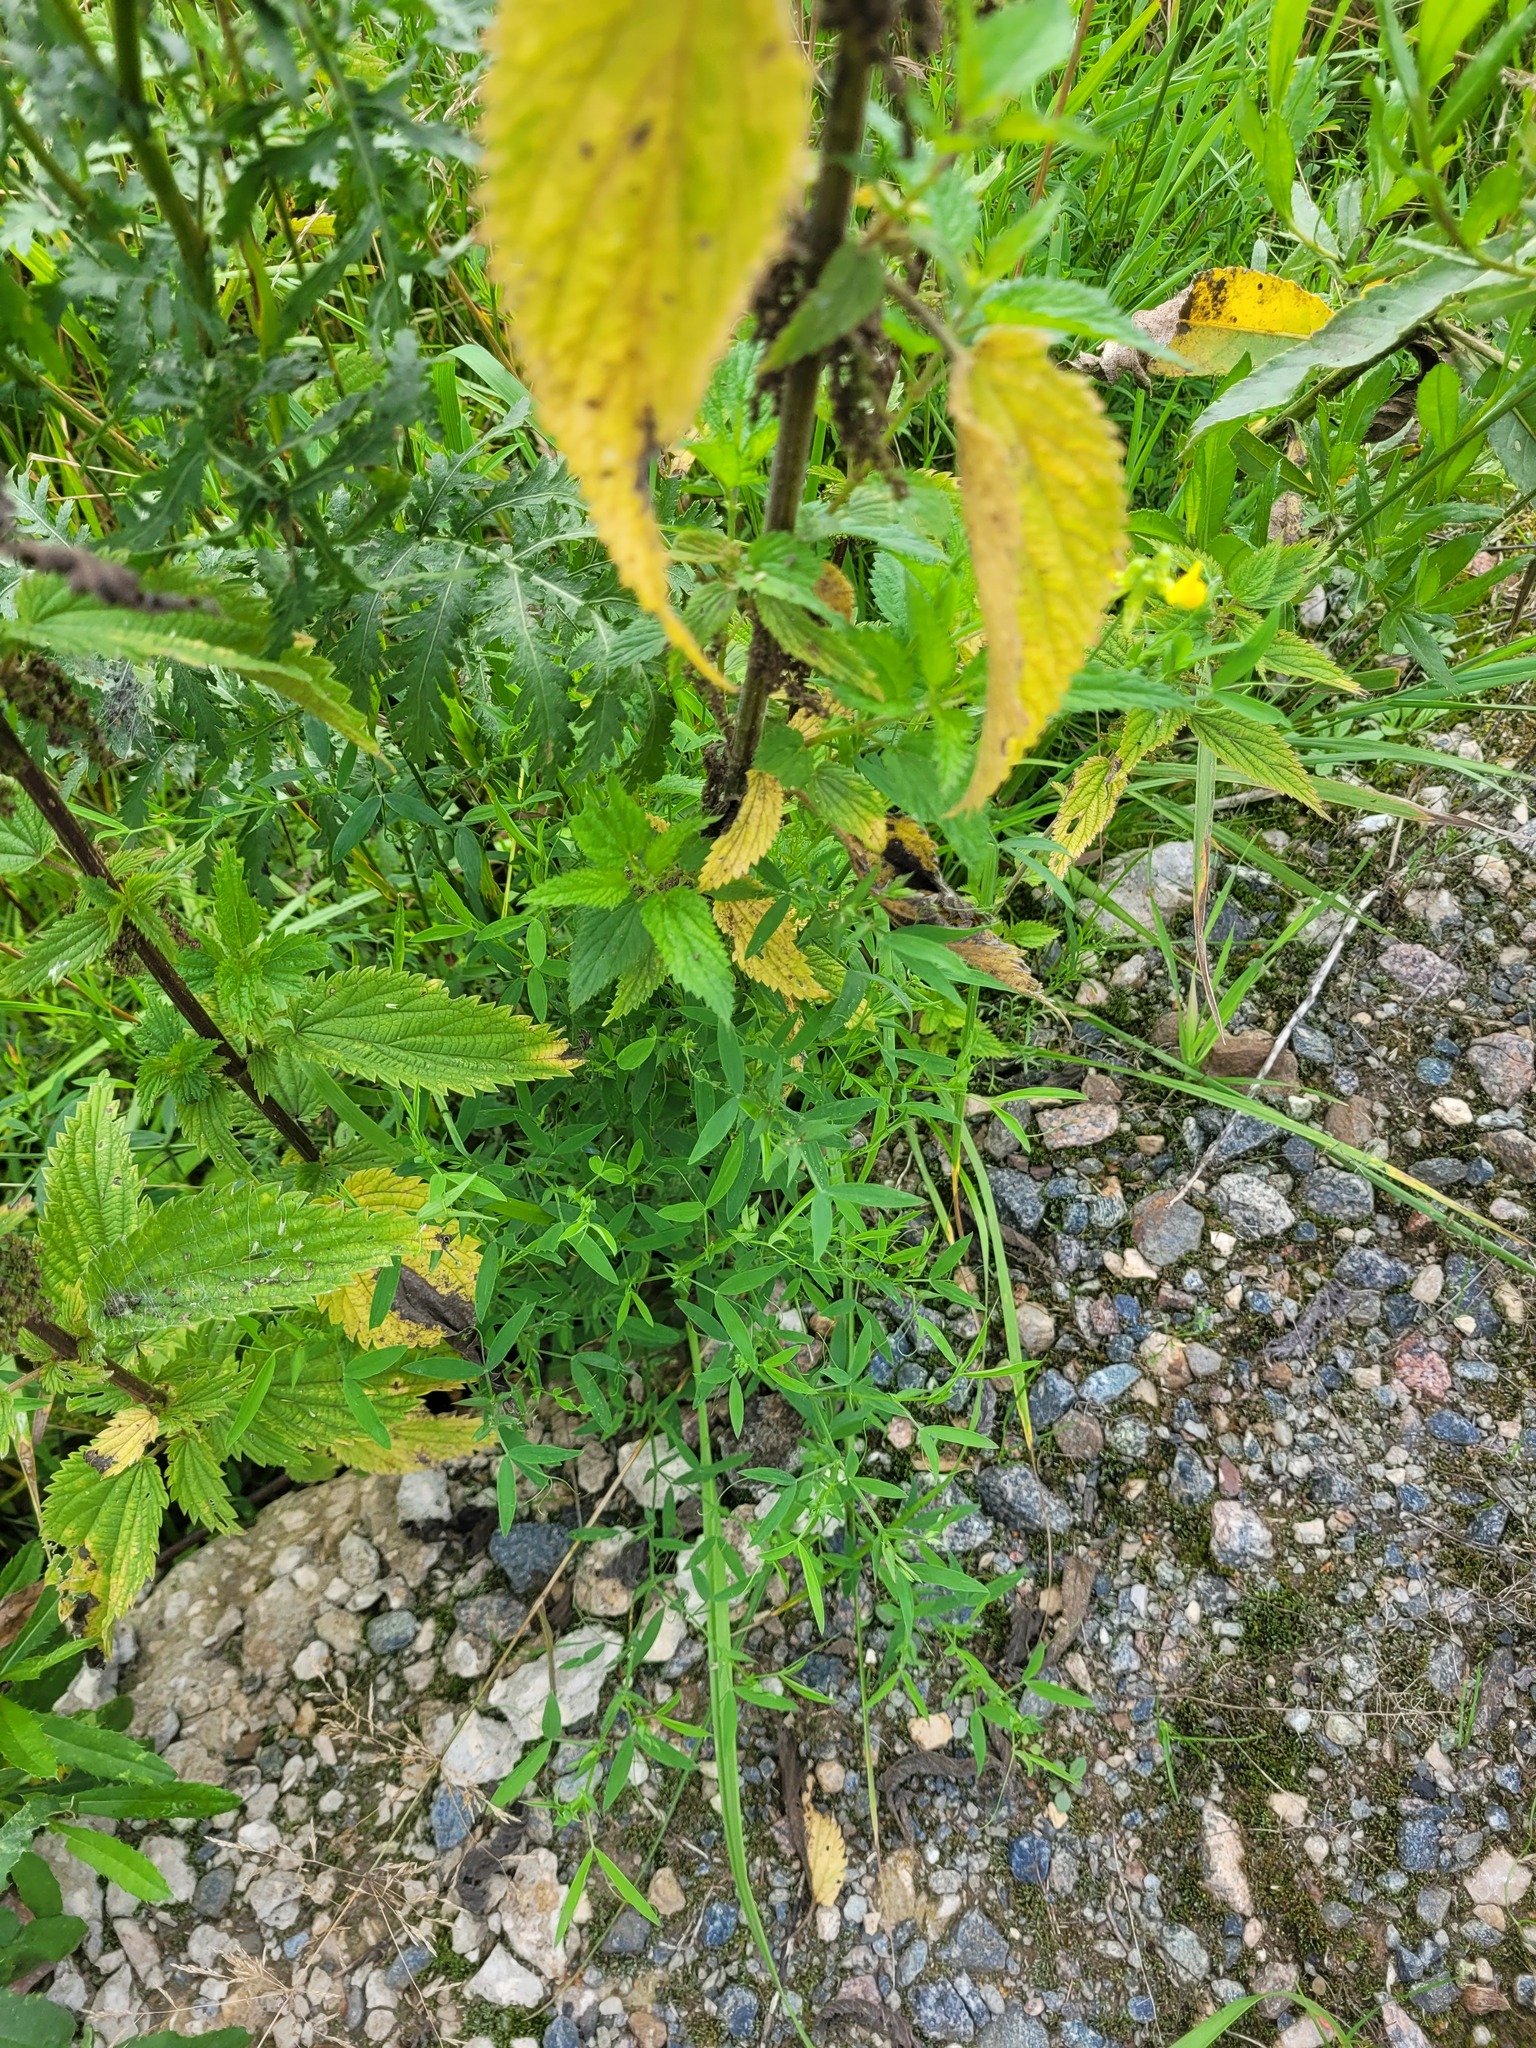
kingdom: Plantae
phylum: Tracheophyta
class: Magnoliopsida
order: Fabales
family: Fabaceae
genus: Lathyrus
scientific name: Lathyrus pratensis
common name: Meadow vetchling
